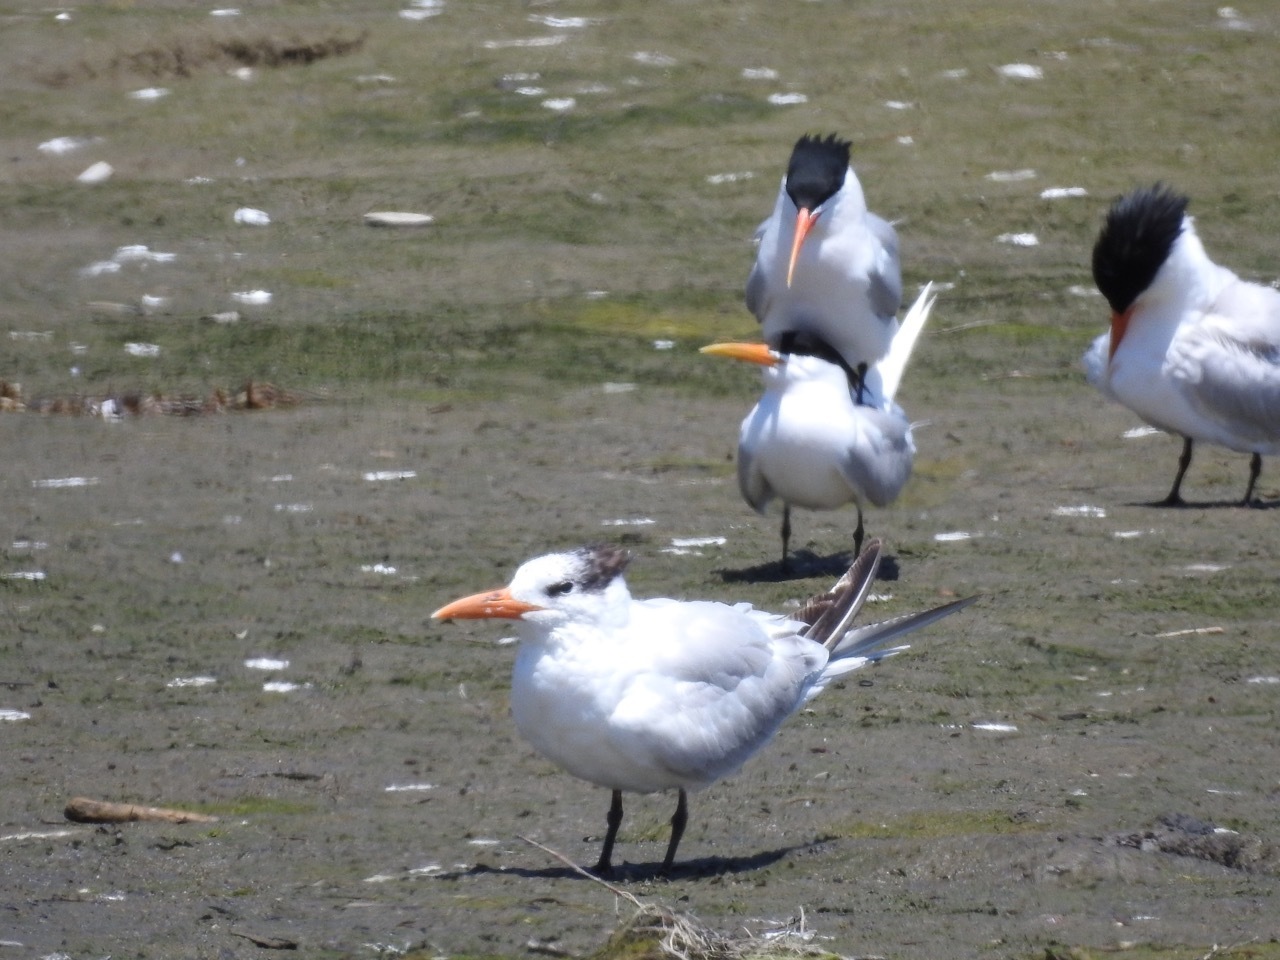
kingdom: Animalia
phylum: Chordata
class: Aves
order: Charadriiformes
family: Laridae
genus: Thalasseus
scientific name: Thalasseus maximus
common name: Royal tern
